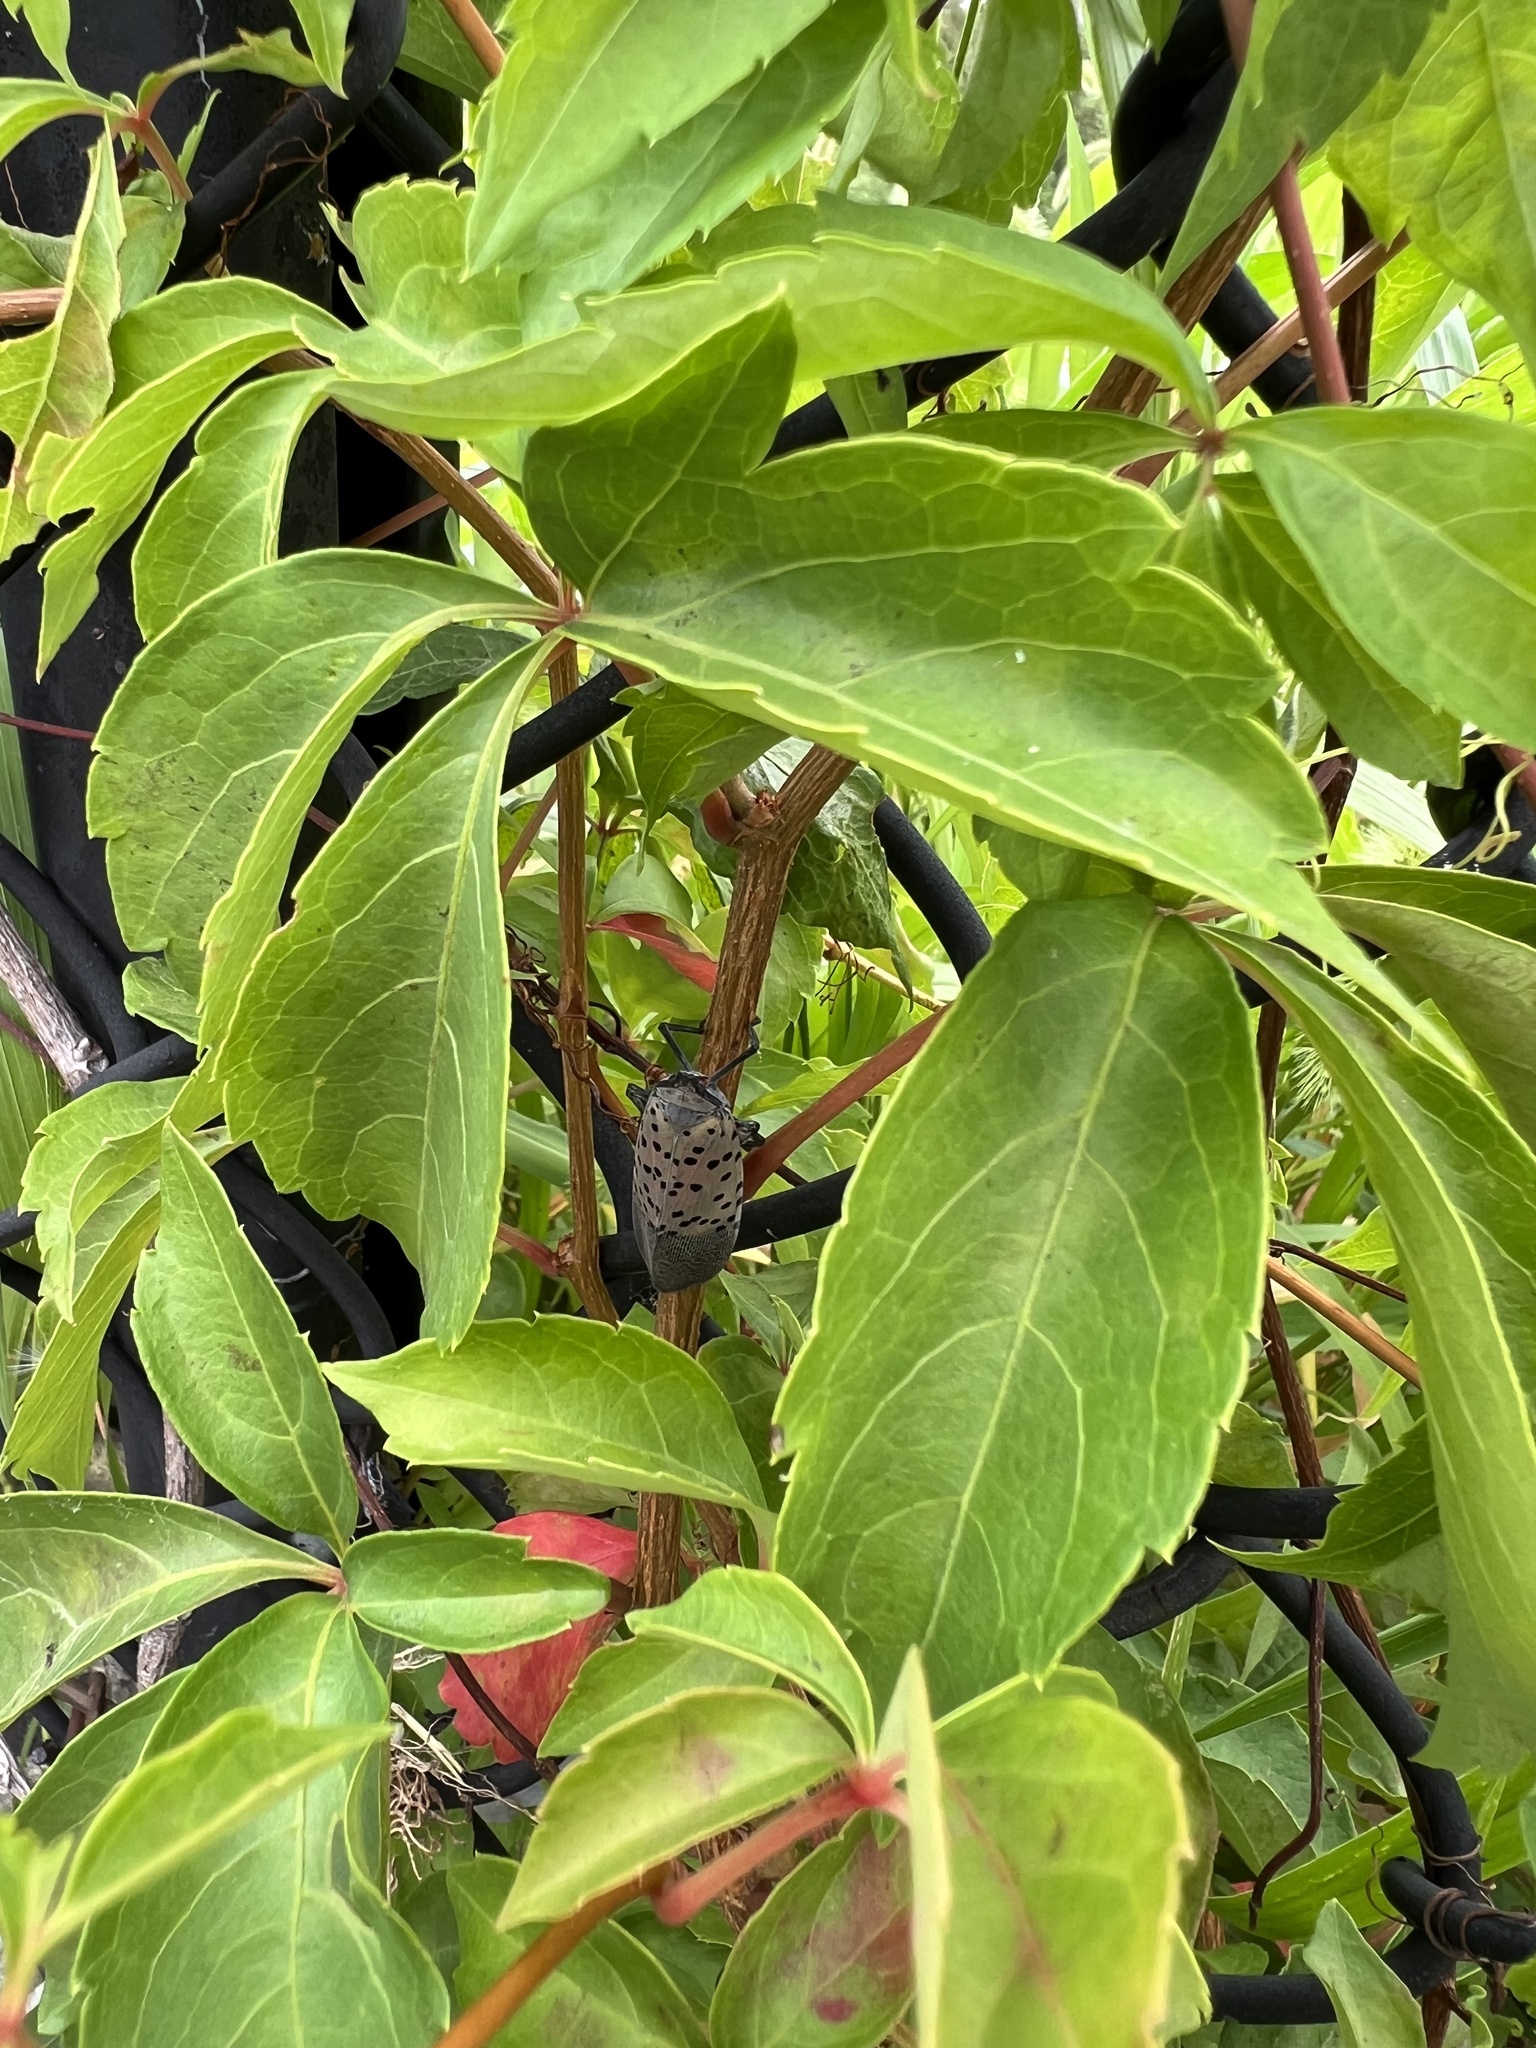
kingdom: Animalia
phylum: Arthropoda
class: Insecta
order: Hemiptera
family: Fulgoridae
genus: Lycorma
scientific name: Lycorma delicatula
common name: Spotted lanternfly
